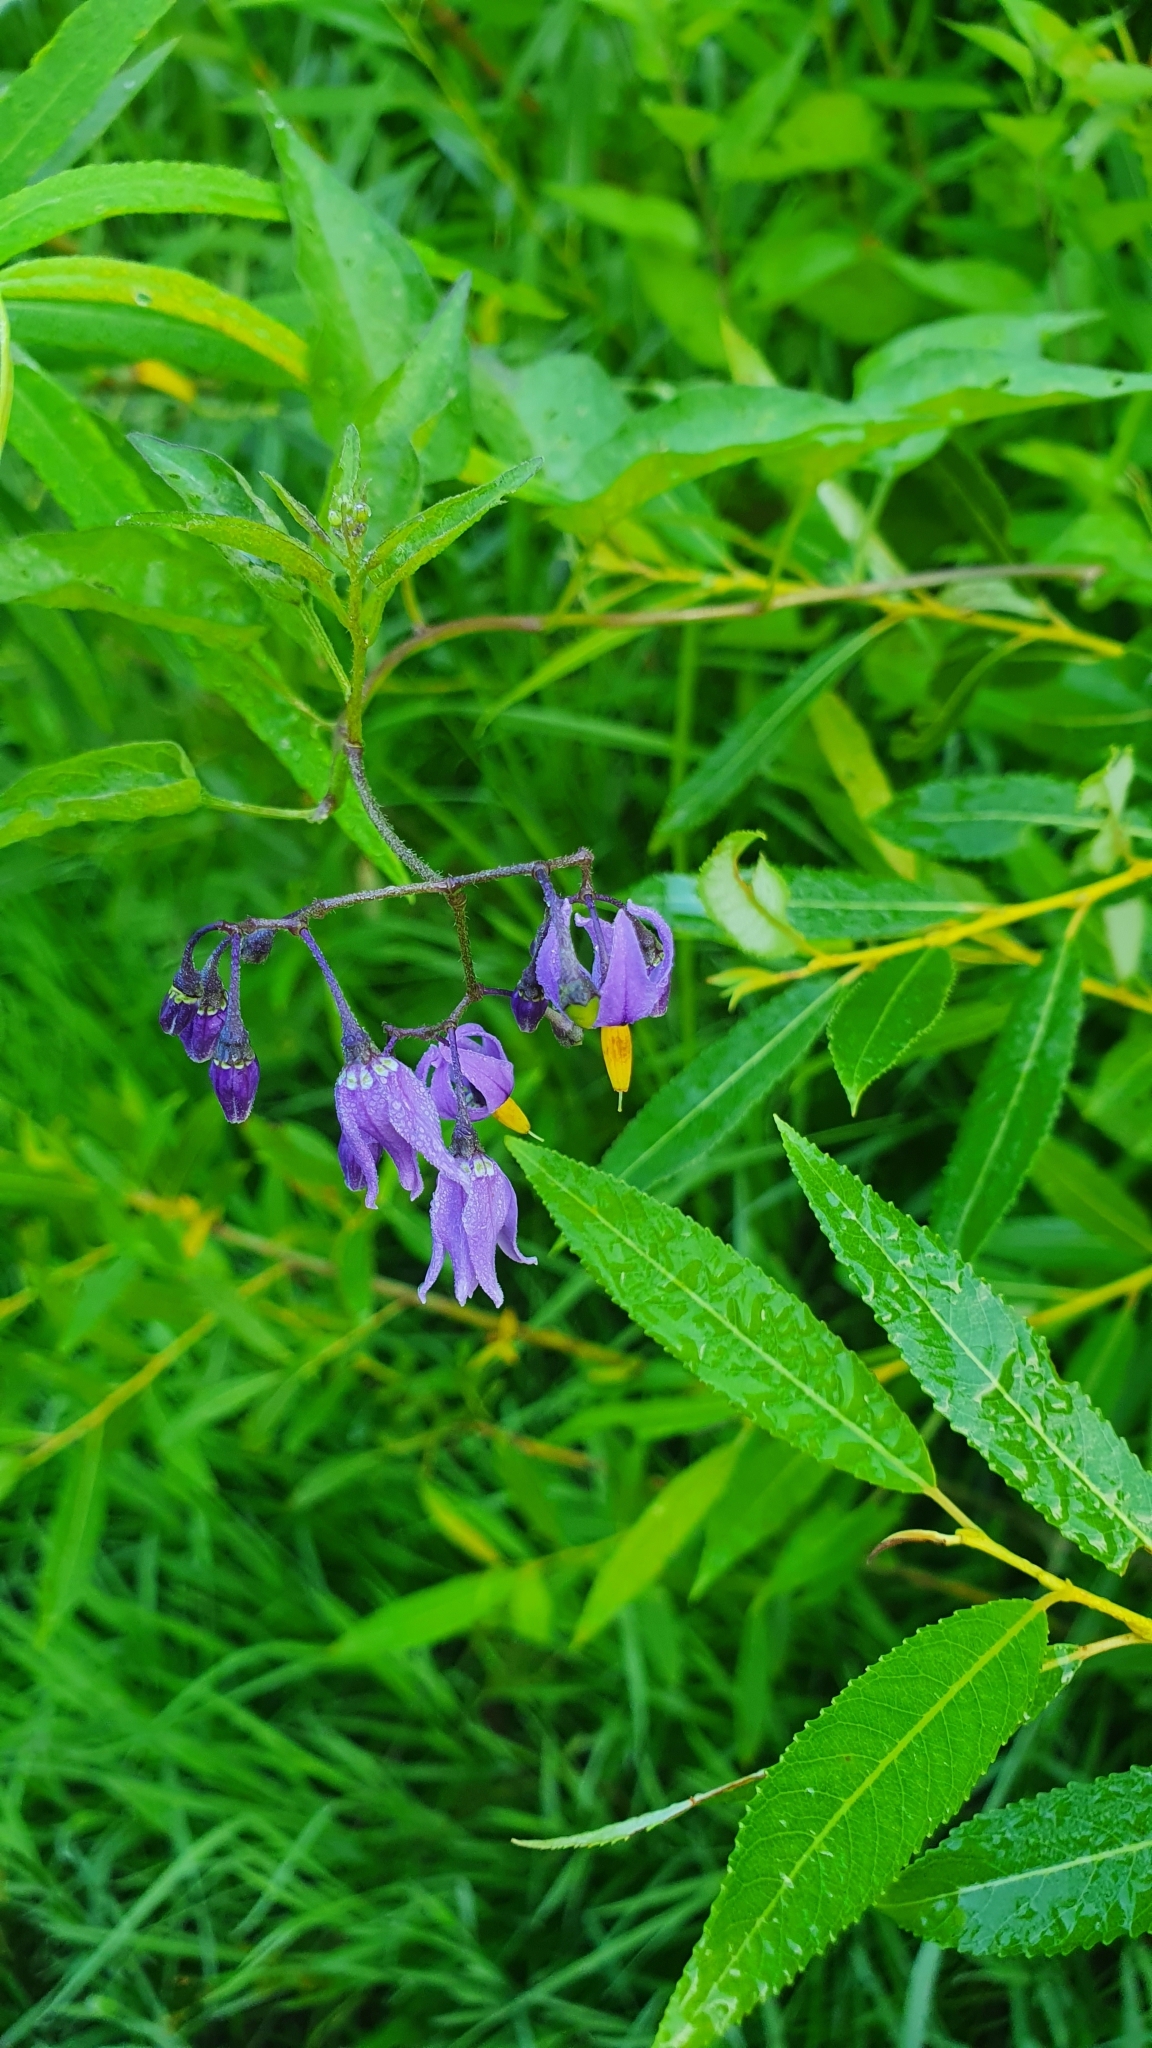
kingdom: Plantae
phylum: Tracheophyta
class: Magnoliopsida
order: Solanales
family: Solanaceae
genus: Solanum
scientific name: Solanum dulcamara
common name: Climbing nightshade
